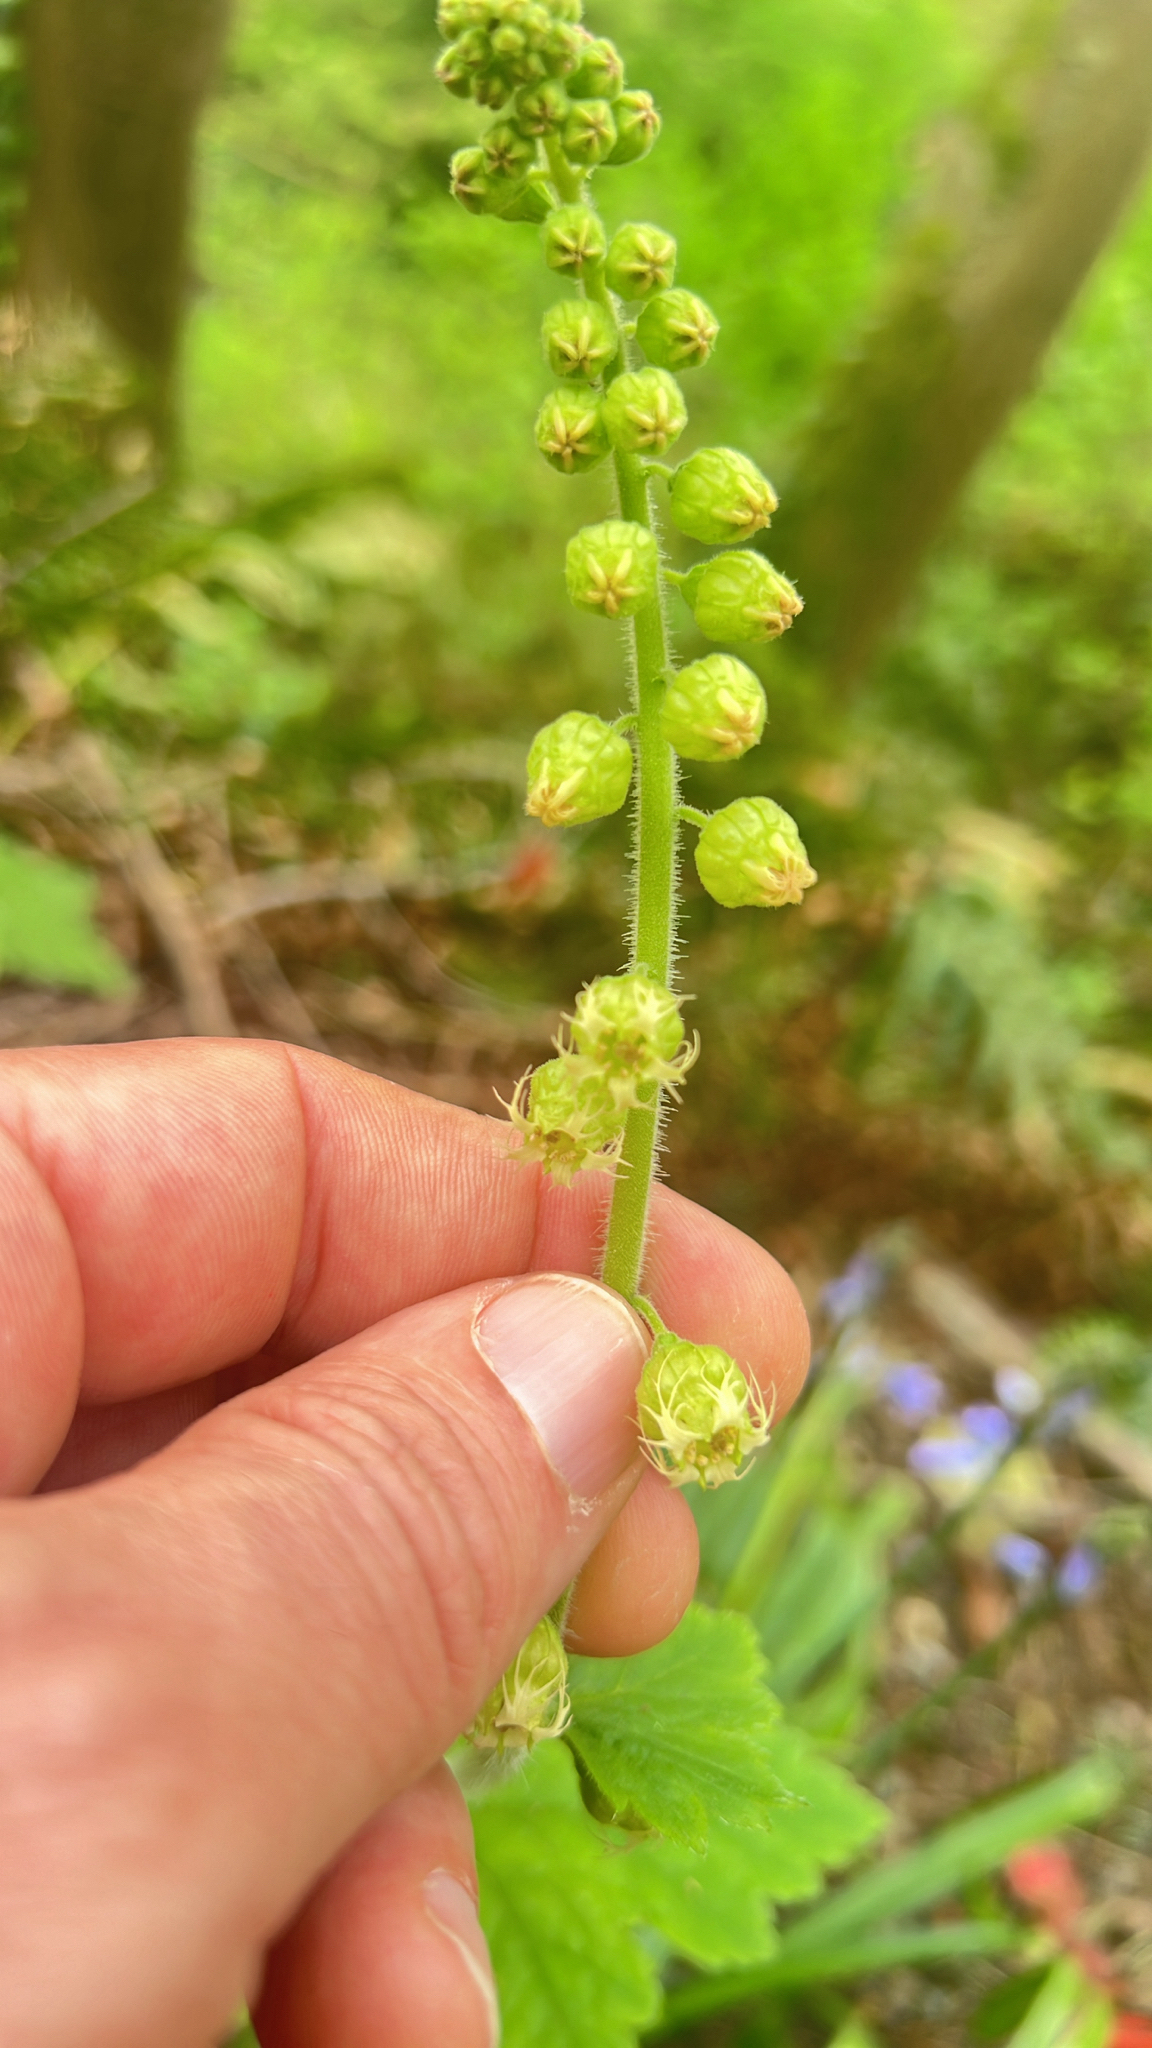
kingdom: Plantae
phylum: Tracheophyta
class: Magnoliopsida
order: Saxifragales
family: Saxifragaceae
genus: Tellima
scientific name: Tellima grandiflora
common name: Fringecups
